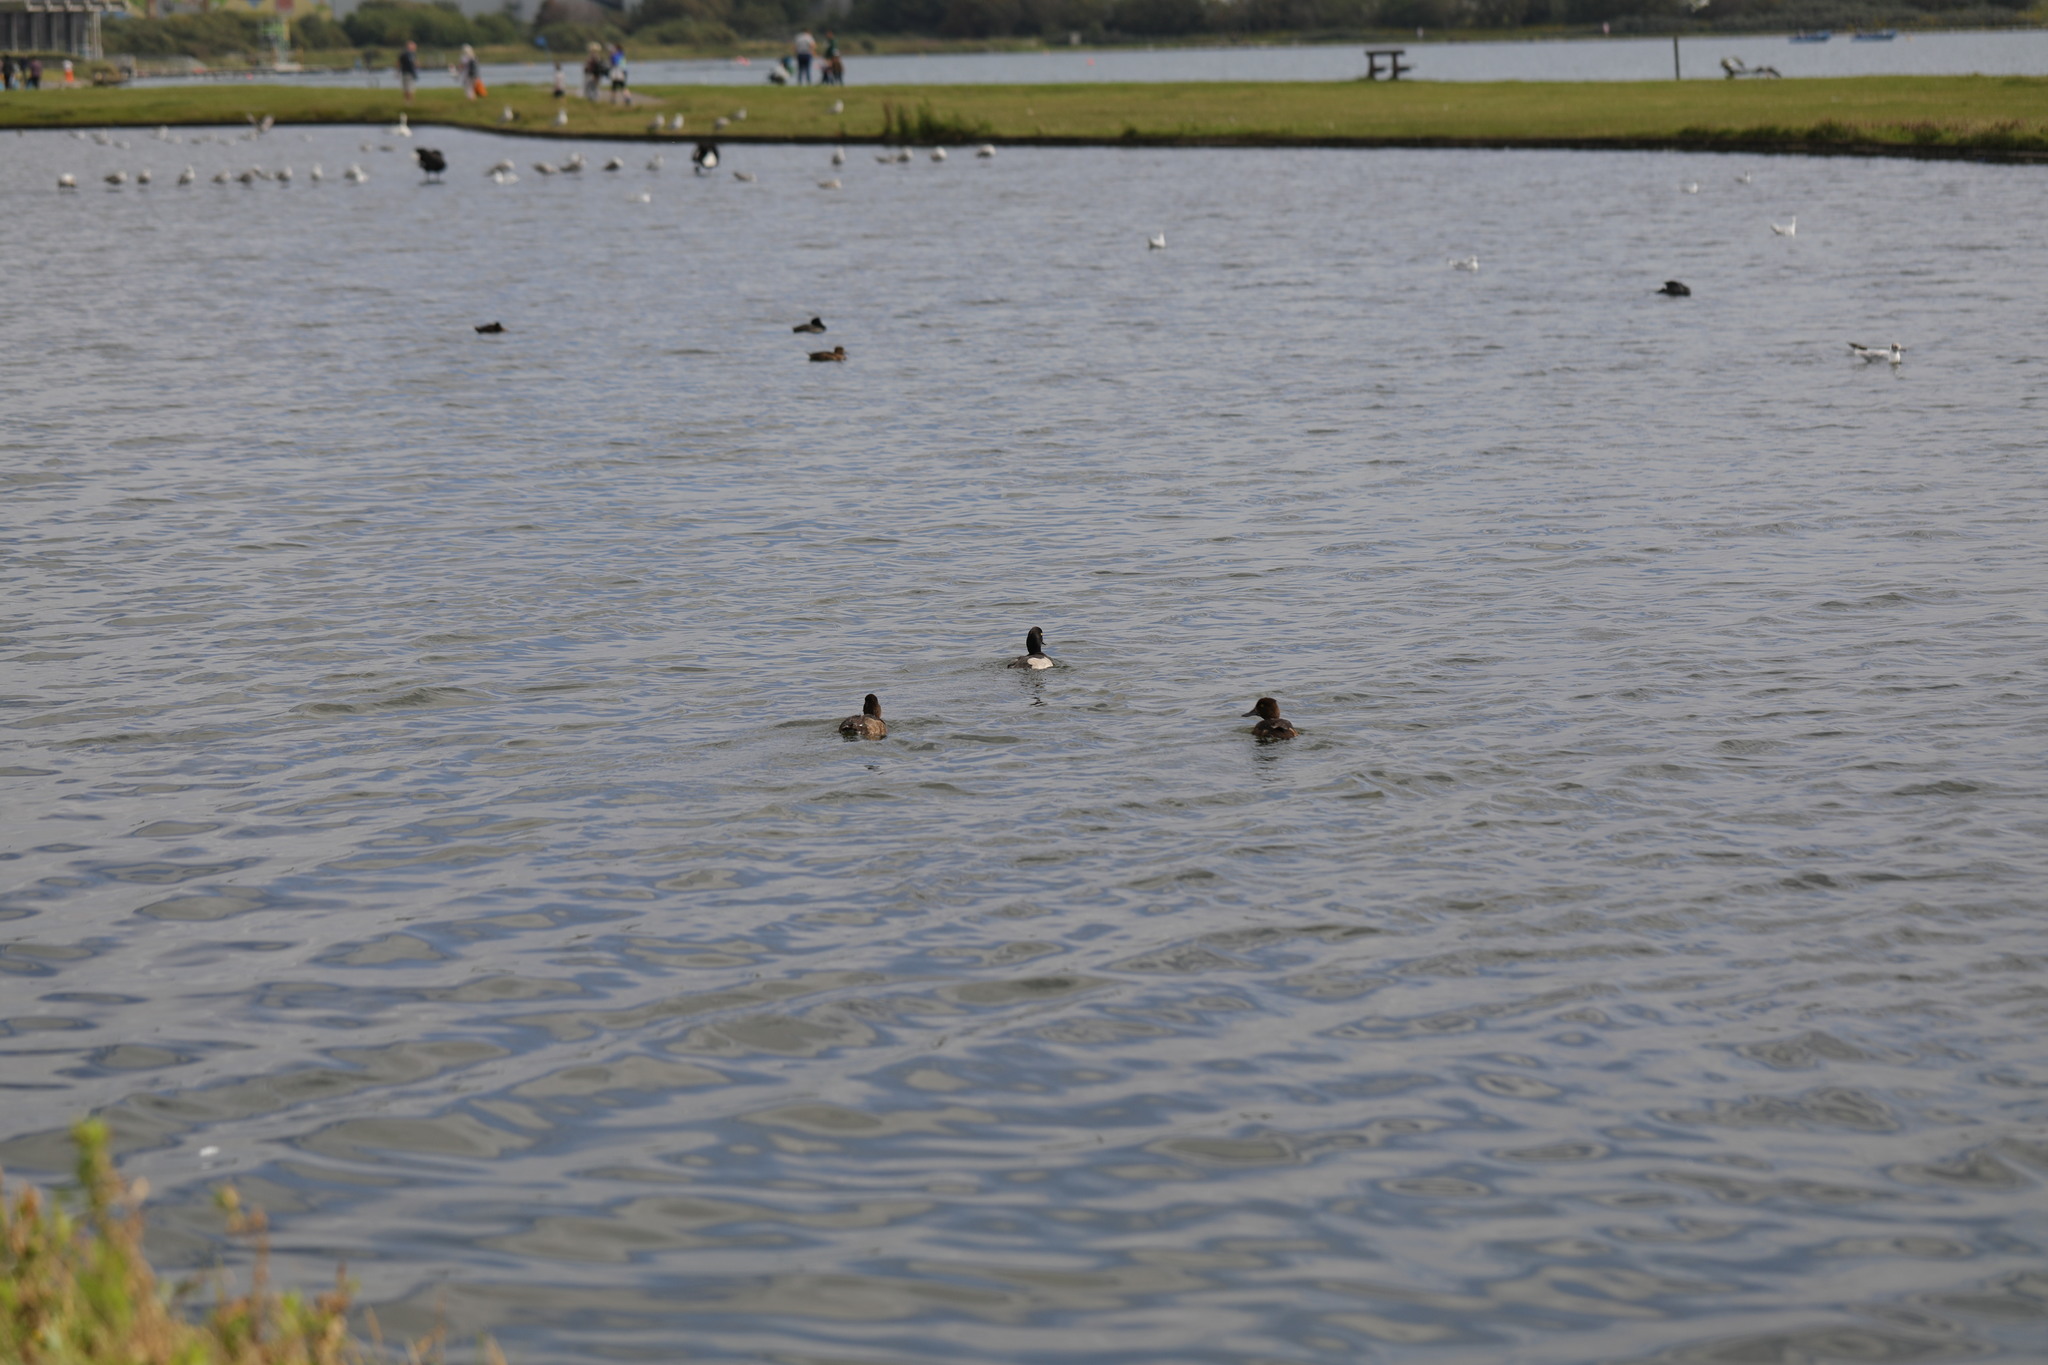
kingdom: Animalia
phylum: Chordata
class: Aves
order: Anseriformes
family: Anatidae
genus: Aythya
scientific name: Aythya fuligula
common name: Tufted duck
